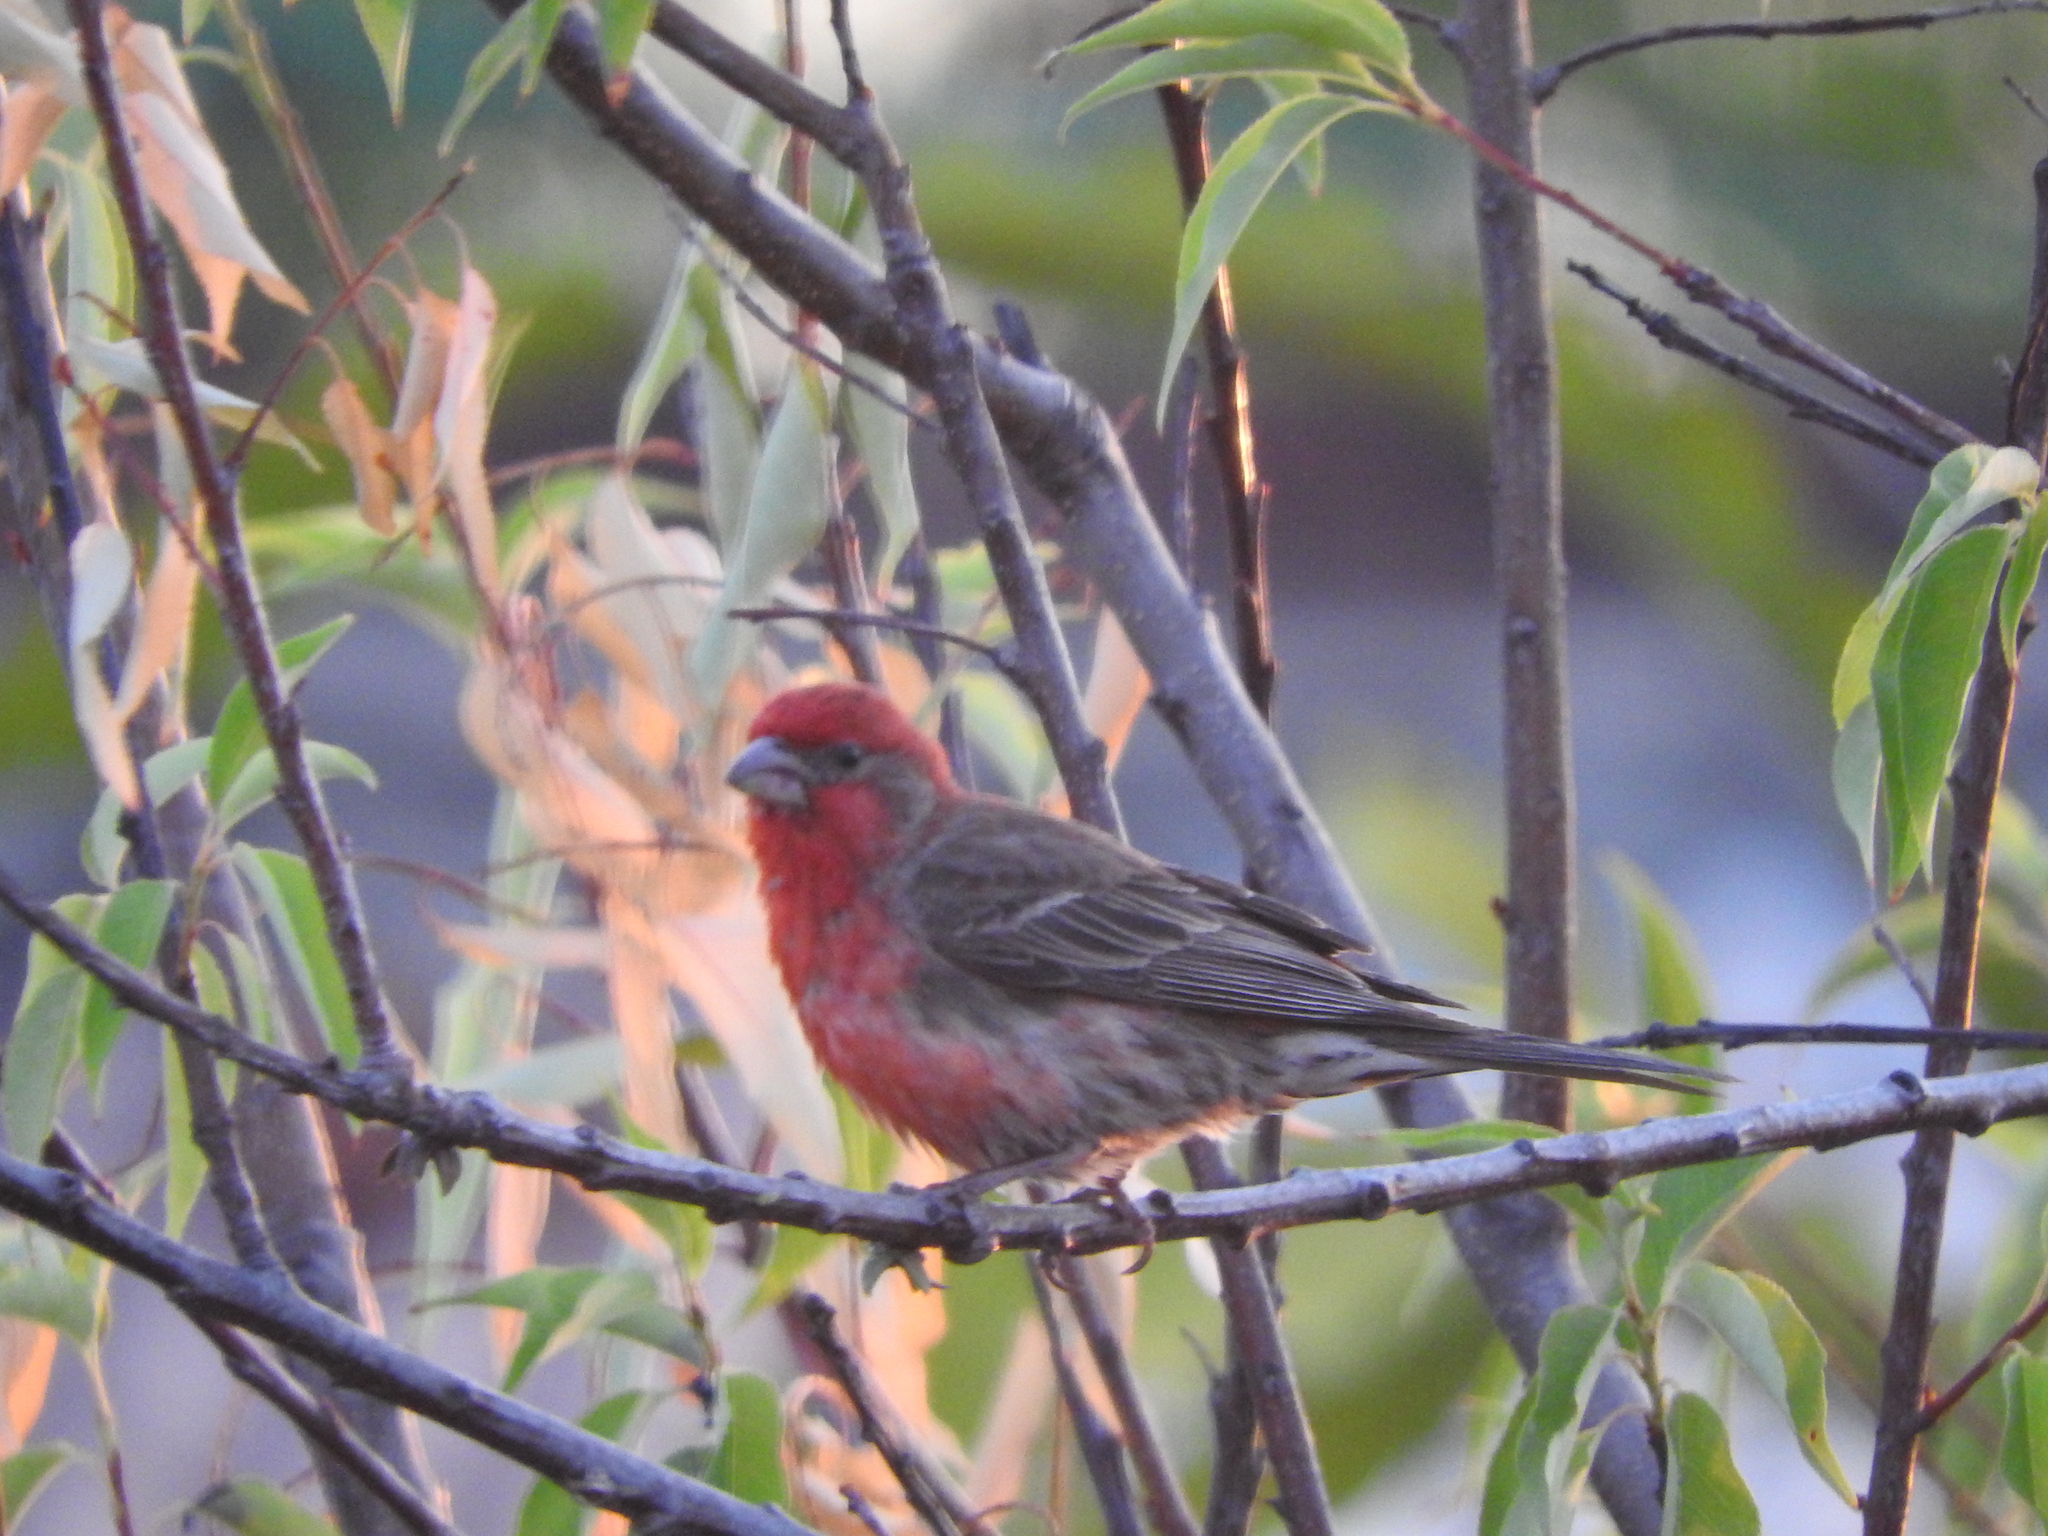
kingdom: Animalia
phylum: Chordata
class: Aves
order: Passeriformes
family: Fringillidae
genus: Haemorhous
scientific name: Haemorhous mexicanus
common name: House finch
